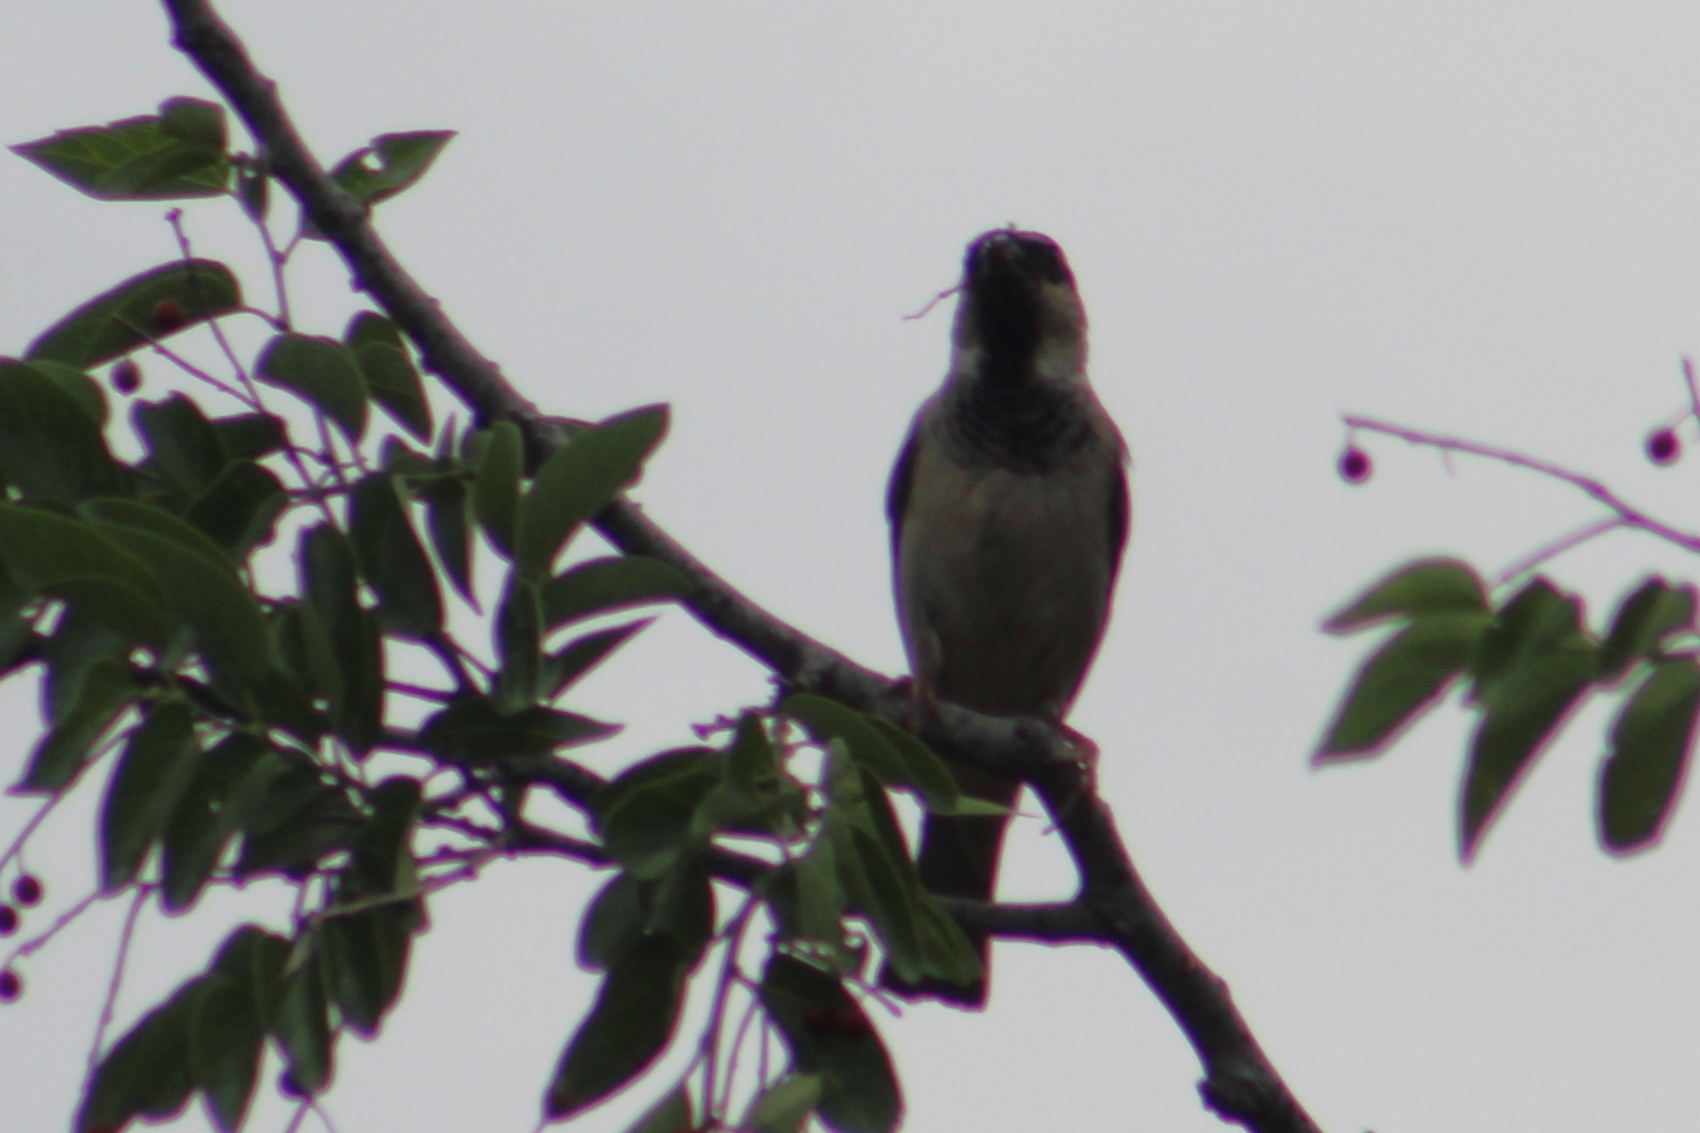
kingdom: Animalia
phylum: Chordata
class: Aves
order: Passeriformes
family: Passeridae
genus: Passer
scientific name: Passer domesticus
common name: House sparrow
